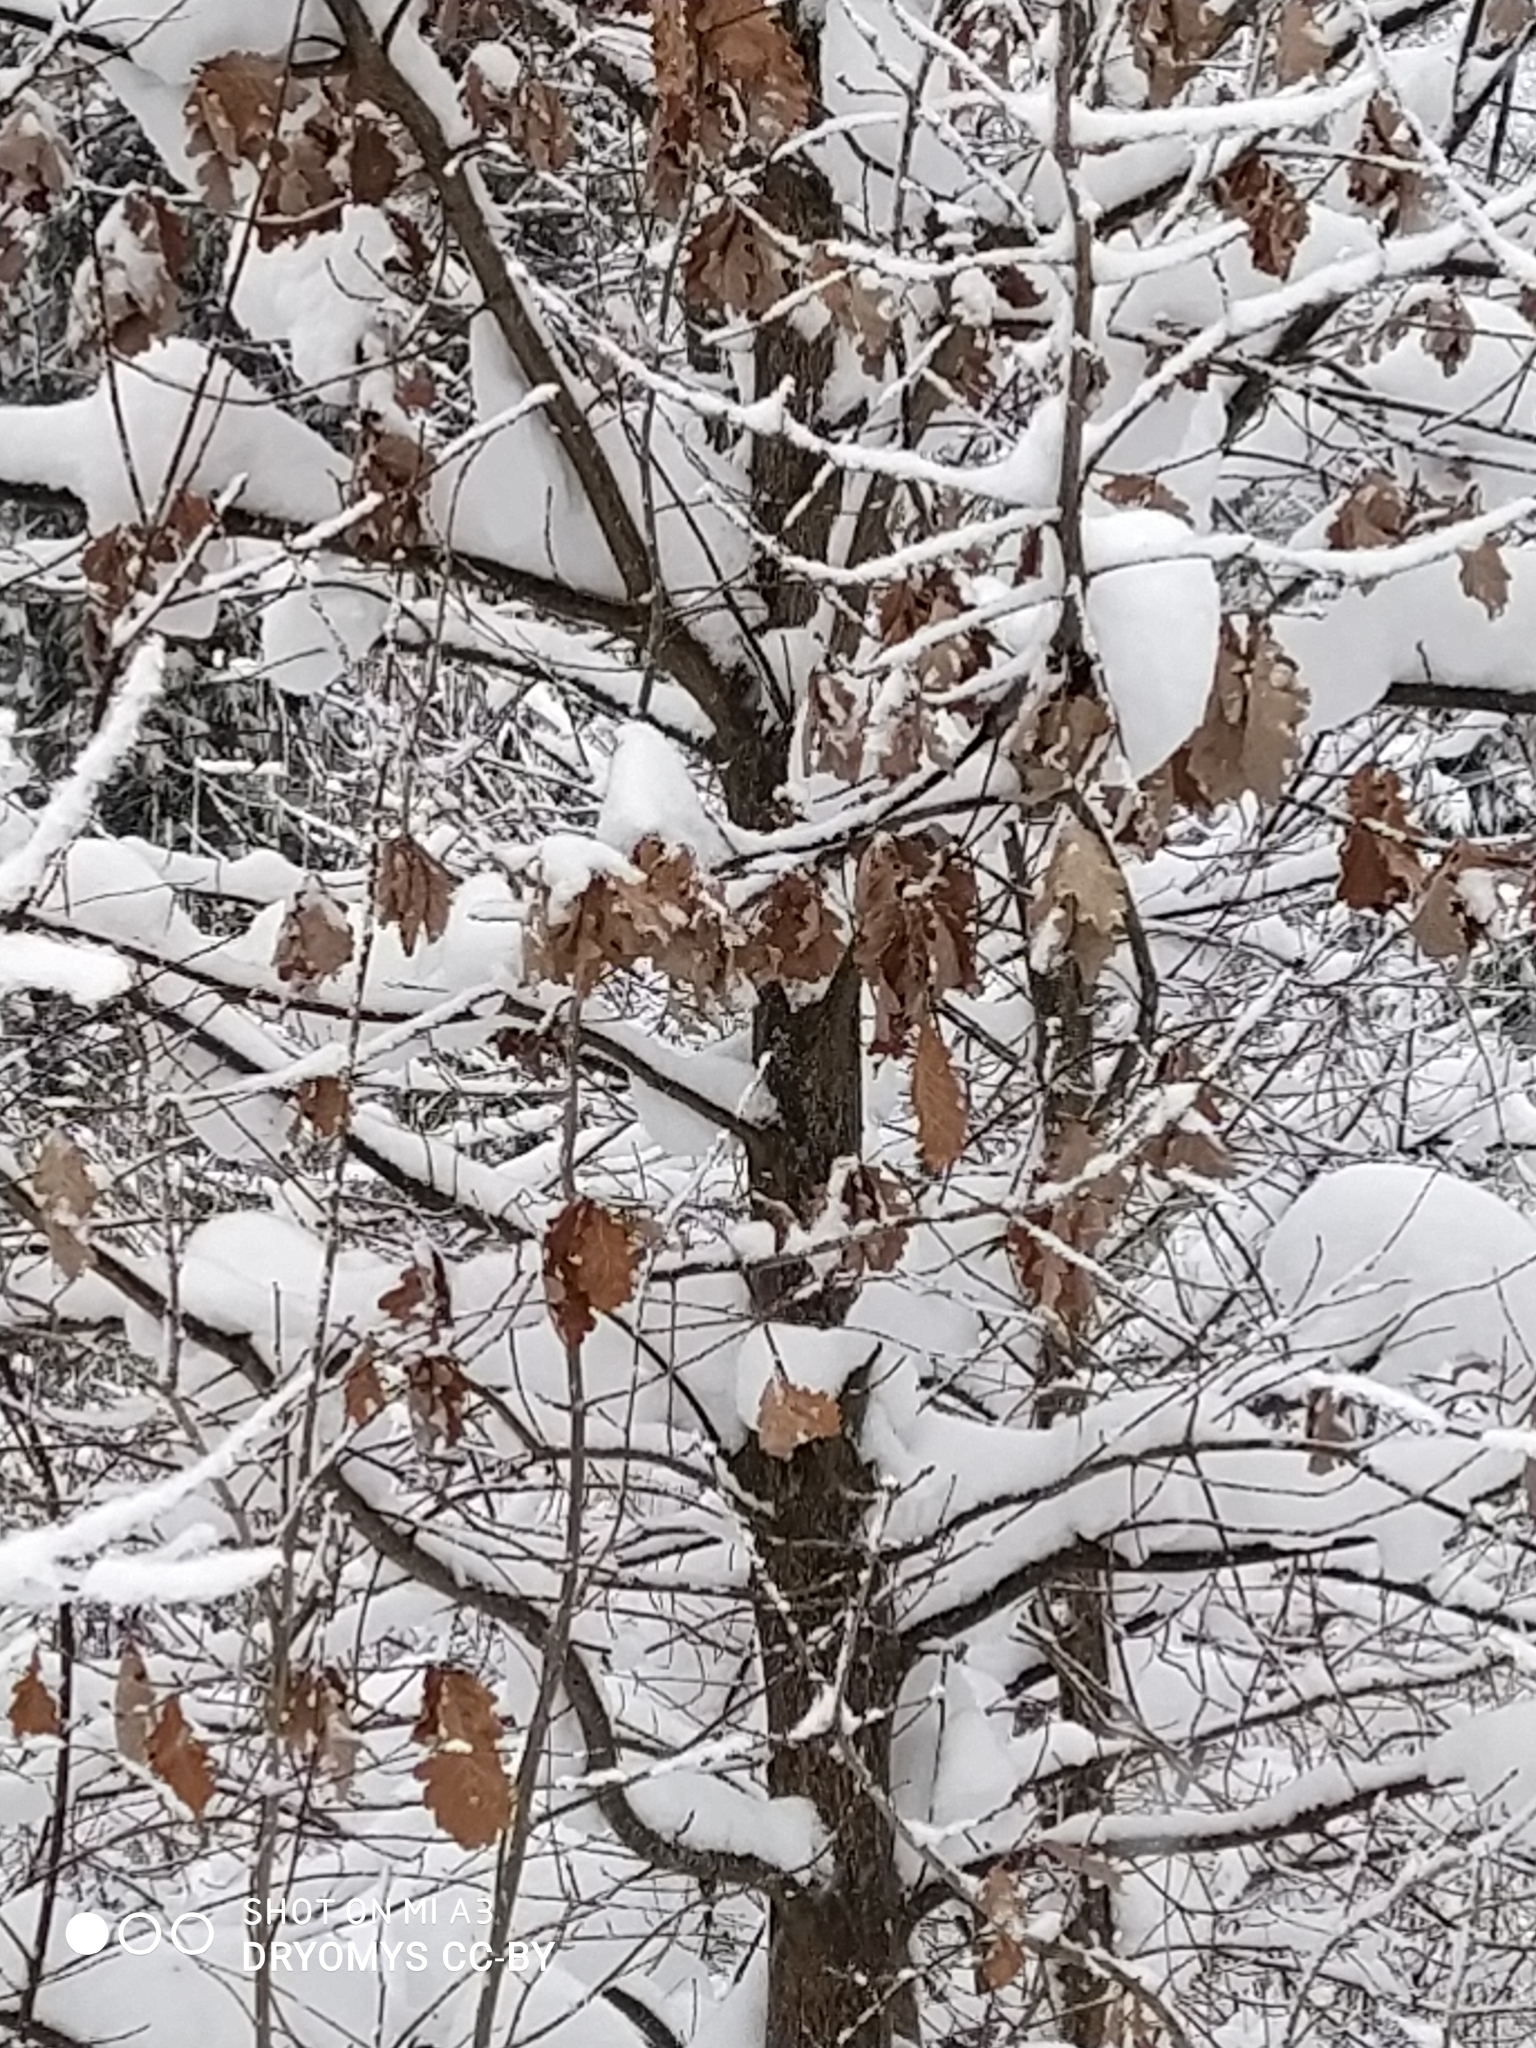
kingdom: Plantae
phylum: Tracheophyta
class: Magnoliopsida
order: Fagales
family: Fagaceae
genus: Quercus
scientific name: Quercus robur
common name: Pedunculate oak
